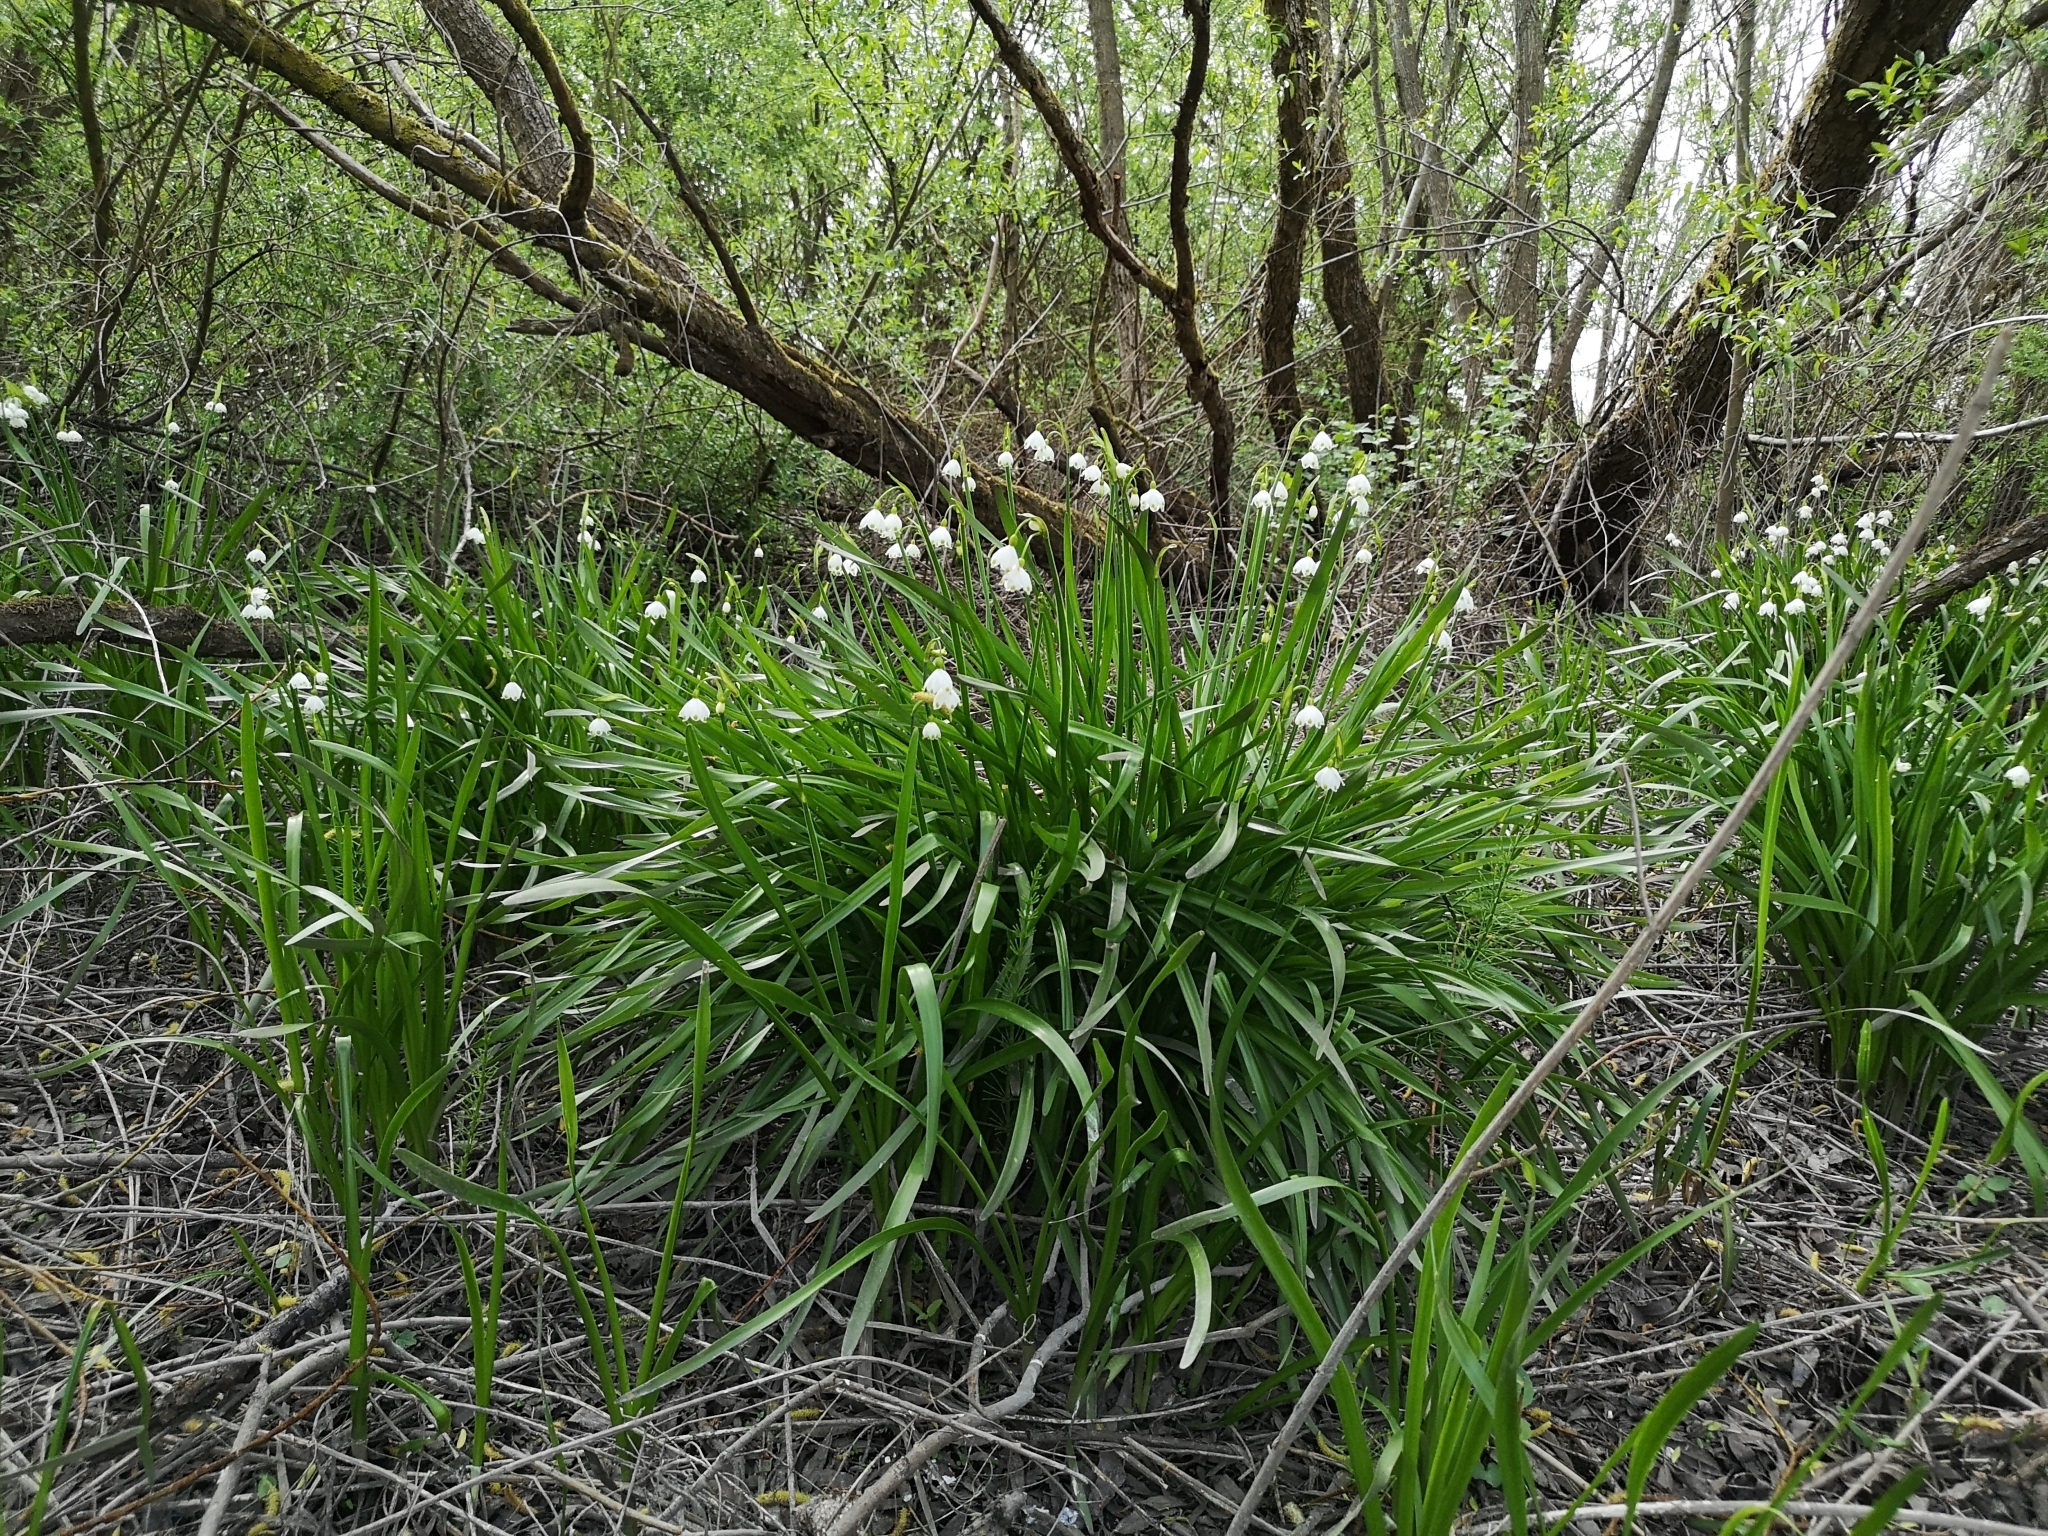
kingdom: Plantae
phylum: Tracheophyta
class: Liliopsida
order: Asparagales
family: Amaryllidaceae
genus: Leucojum
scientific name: Leucojum aestivum
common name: Summer snowflake
